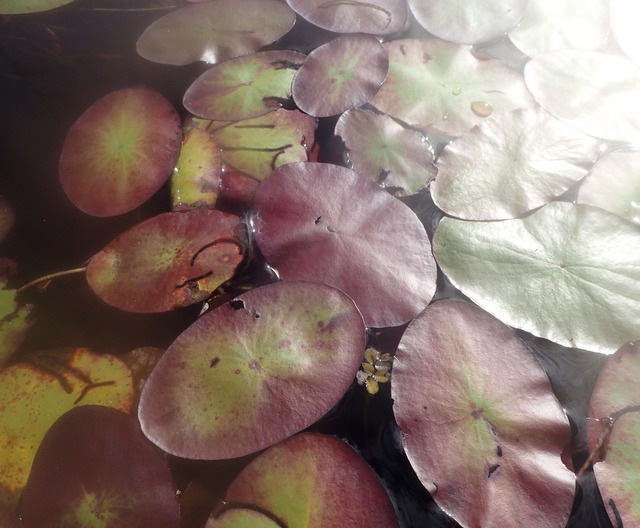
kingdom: Plantae
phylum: Tracheophyta
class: Magnoliopsida
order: Nymphaeales
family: Cabombaceae
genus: Brasenia
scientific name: Brasenia schreberi
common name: Water-shield
